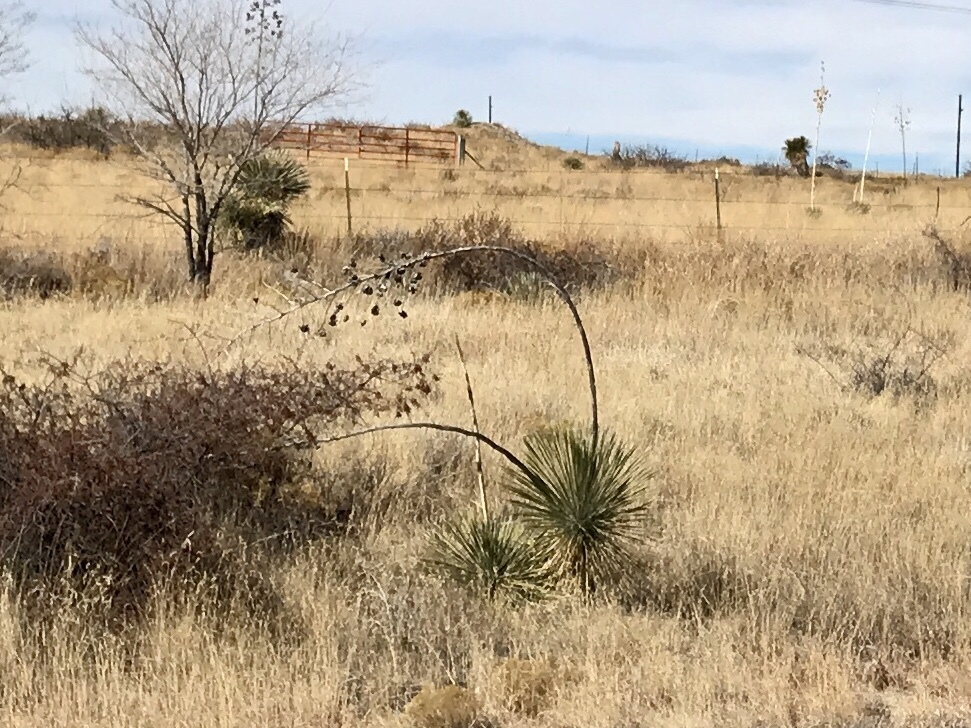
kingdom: Plantae
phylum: Tracheophyta
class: Liliopsida
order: Asparagales
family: Asparagaceae
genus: Yucca
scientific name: Yucca elata
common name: Palmella
